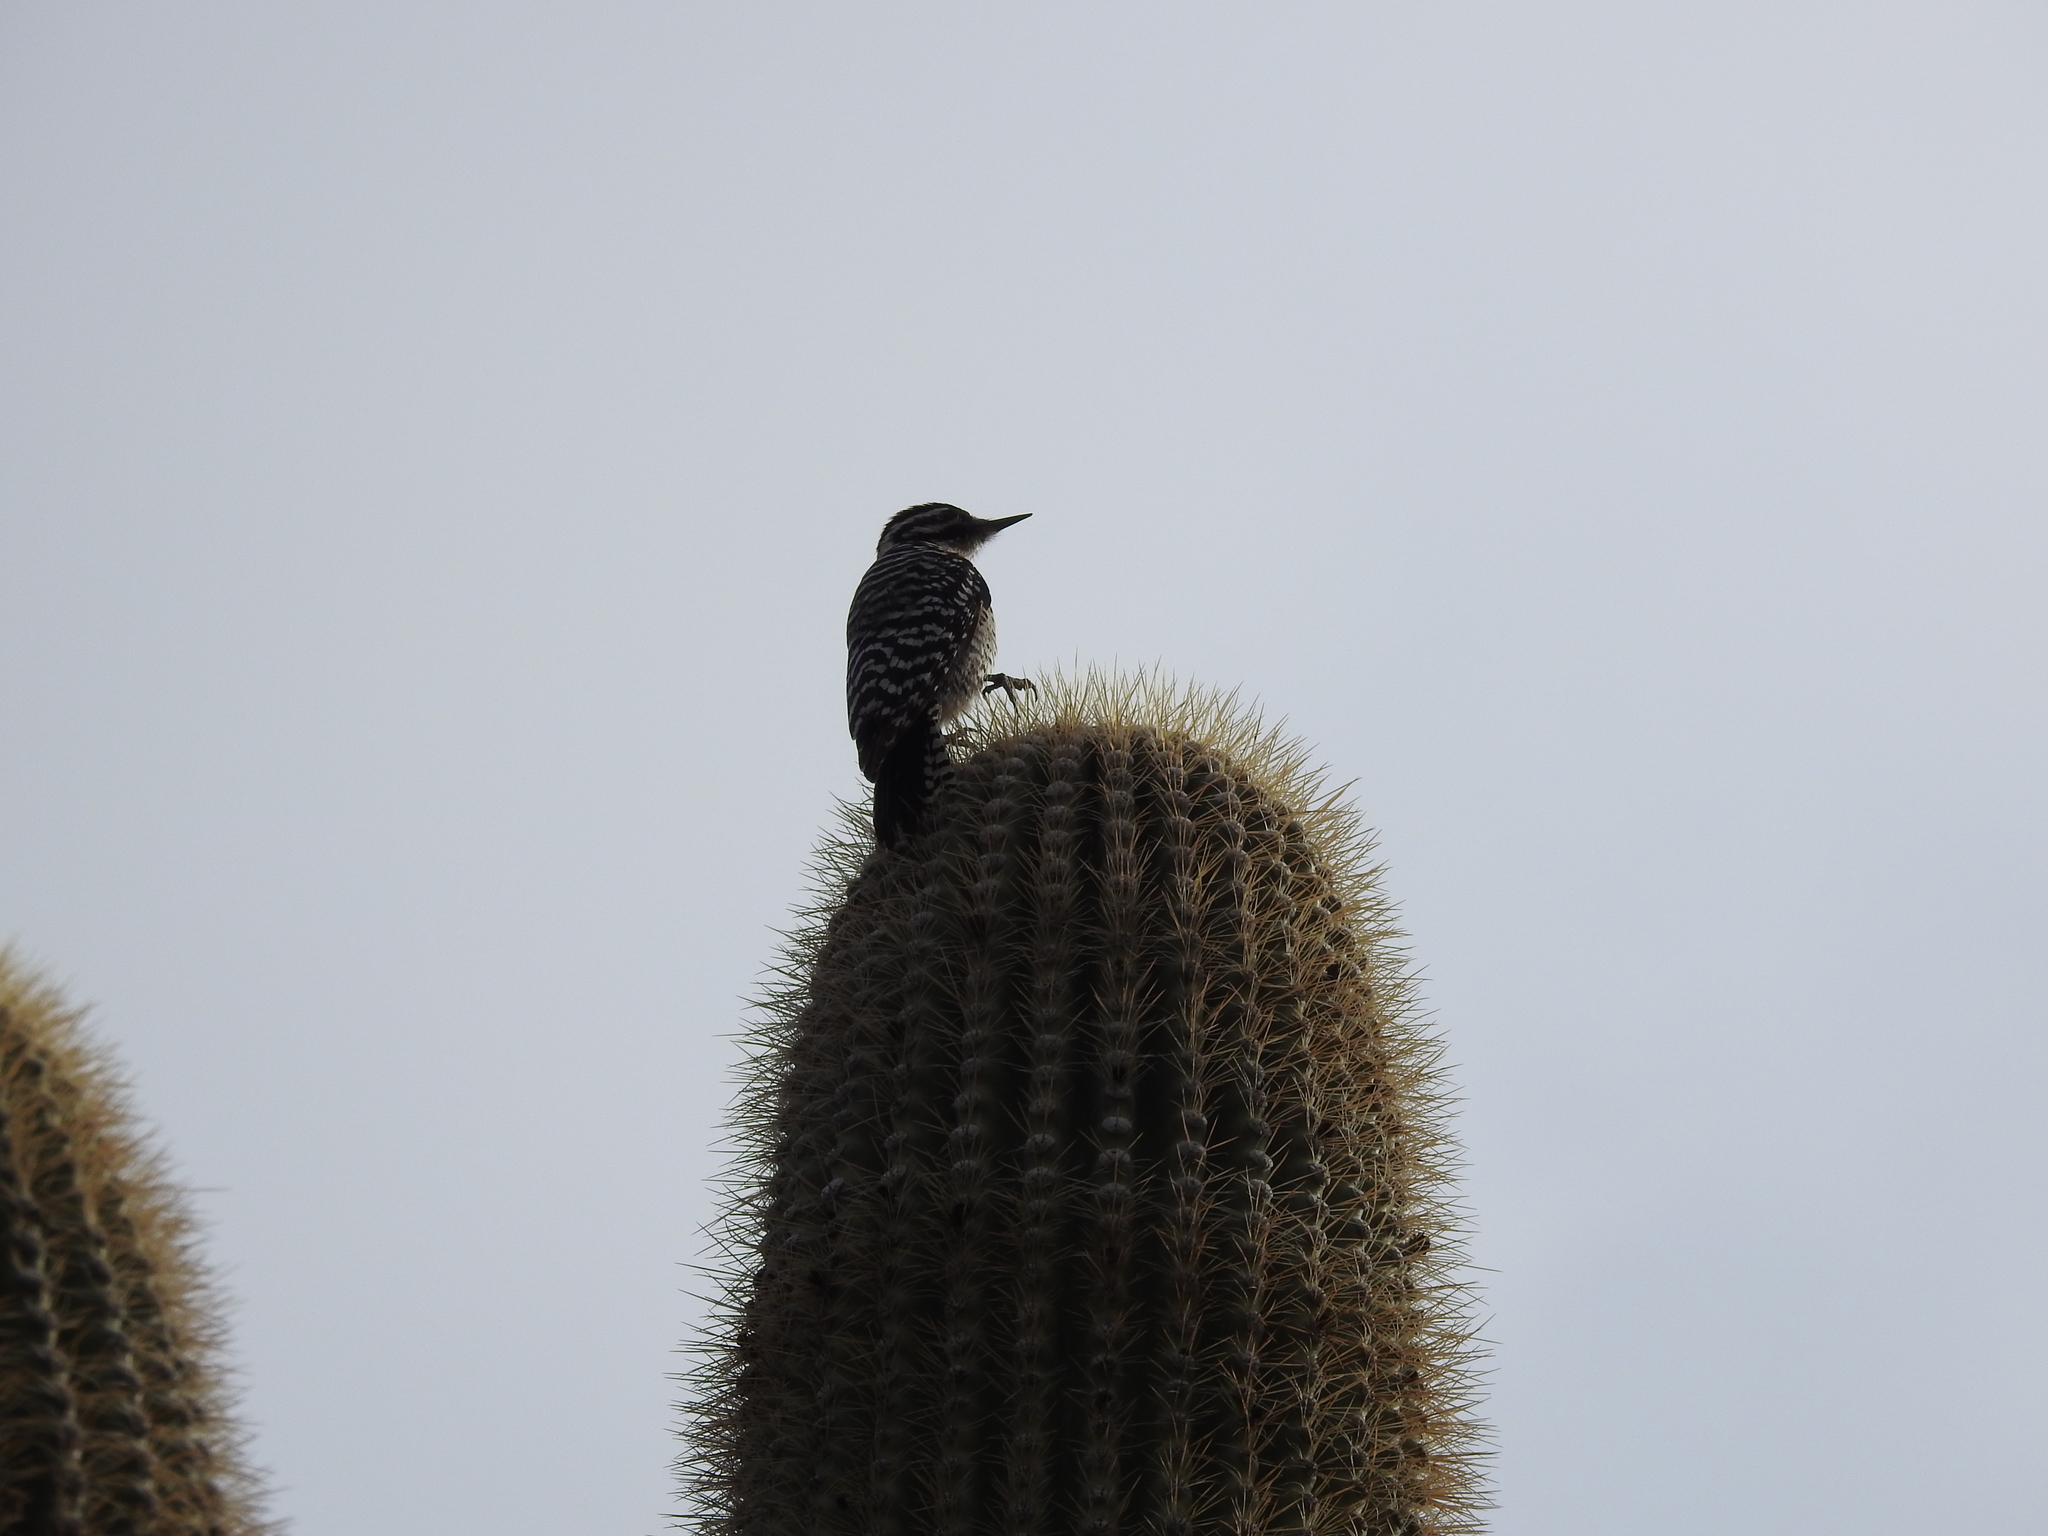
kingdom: Animalia
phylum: Chordata
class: Aves
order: Piciformes
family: Picidae
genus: Dryobates
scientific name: Dryobates scalaris
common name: Ladder-backed woodpecker
